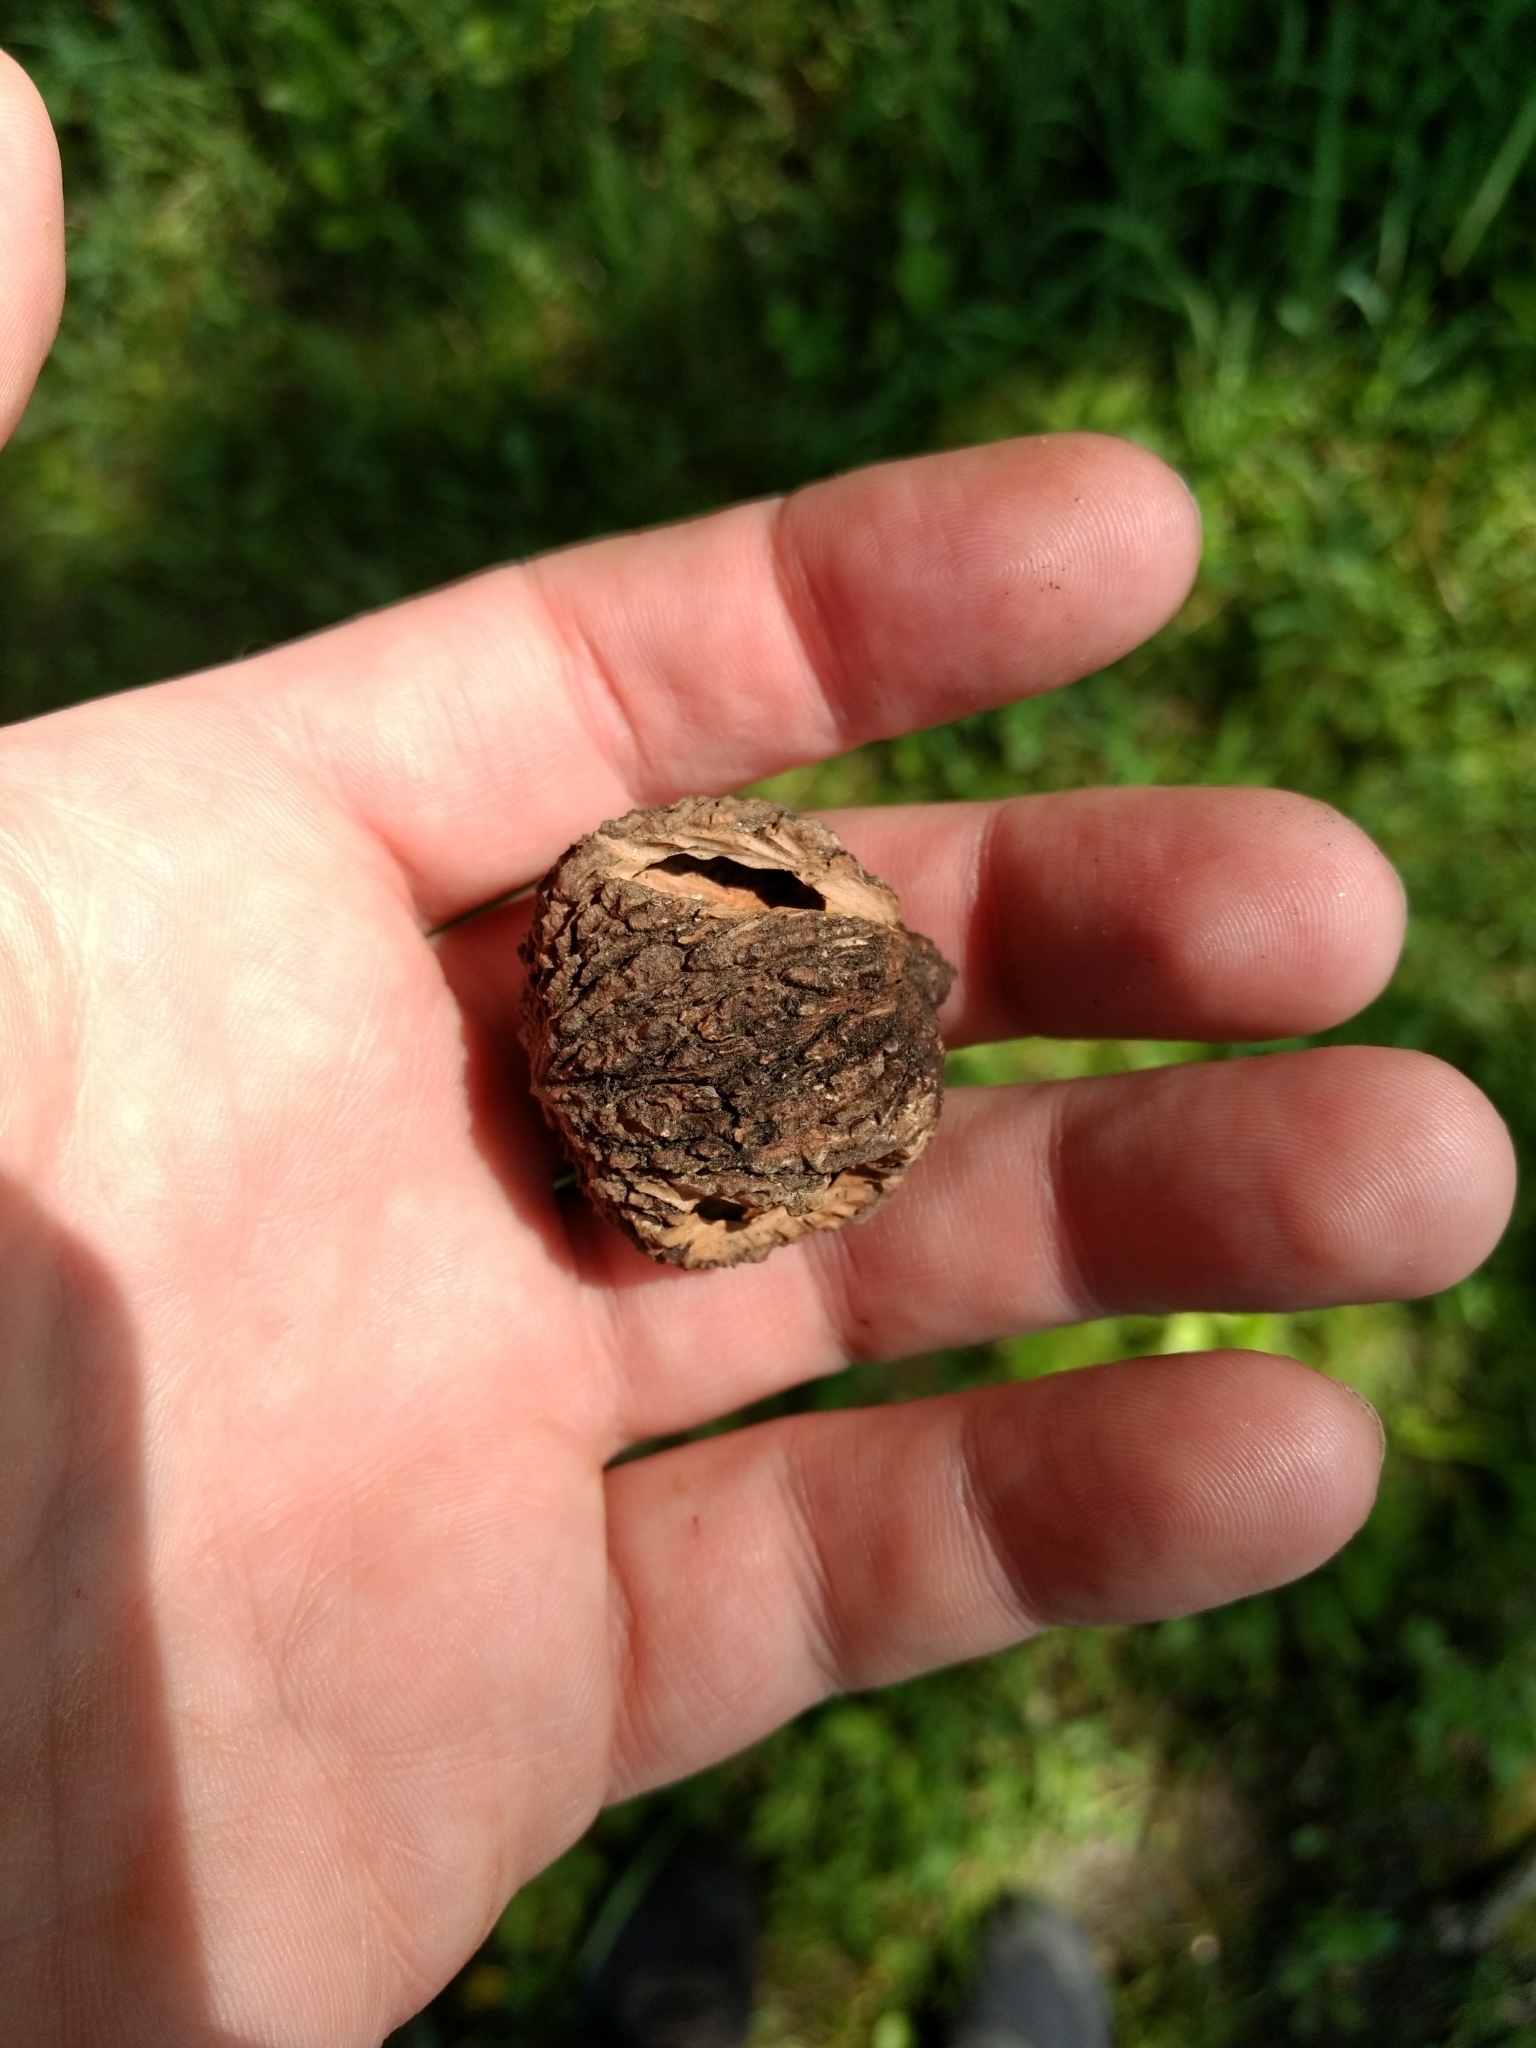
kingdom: Plantae
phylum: Tracheophyta
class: Magnoliopsida
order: Fagales
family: Juglandaceae
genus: Juglans
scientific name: Juglans nigra
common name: Black walnut
